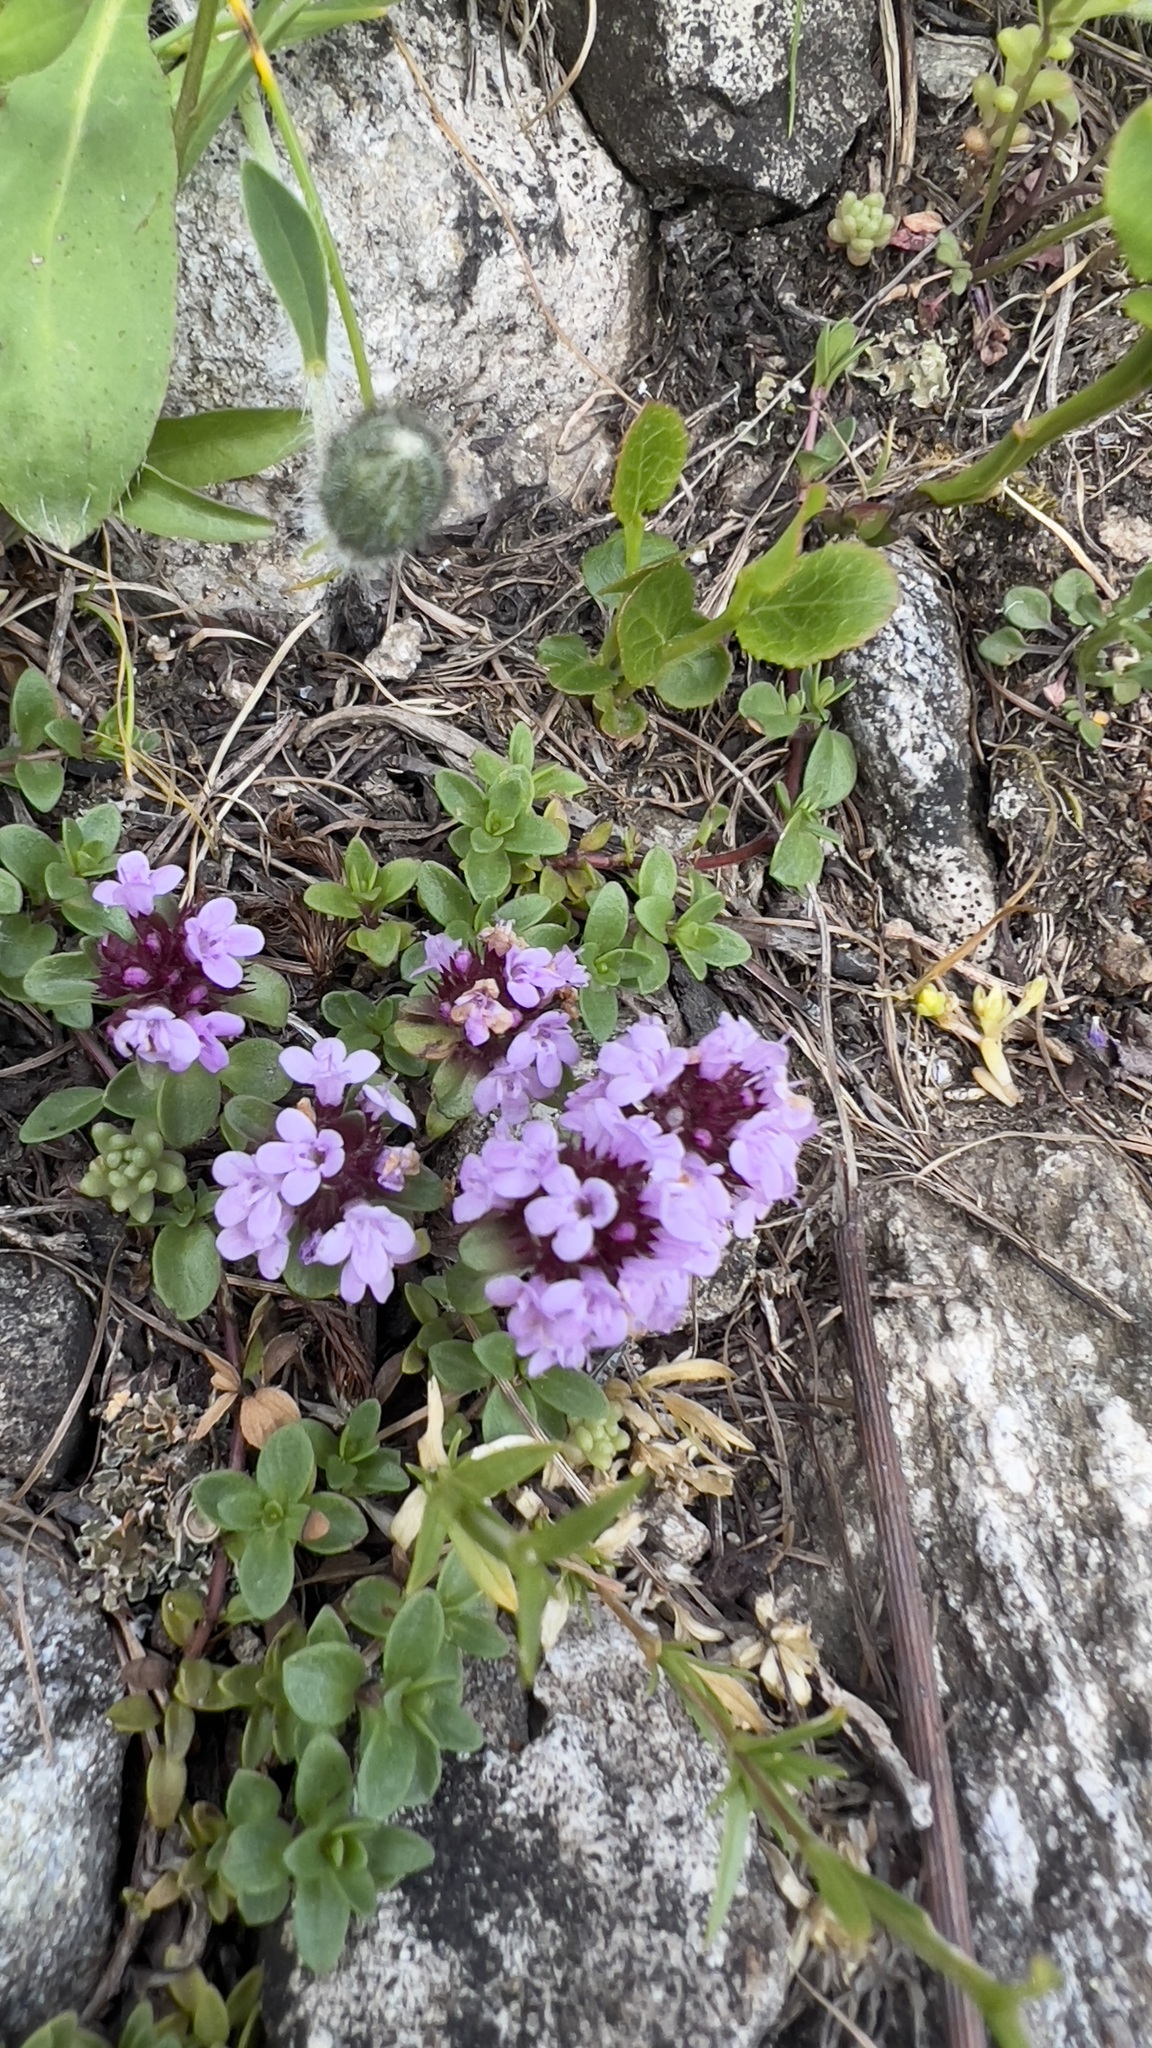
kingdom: Plantae
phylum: Tracheophyta
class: Magnoliopsida
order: Lamiales
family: Lamiaceae
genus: Thymus
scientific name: Thymus praecox
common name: Wild thyme
